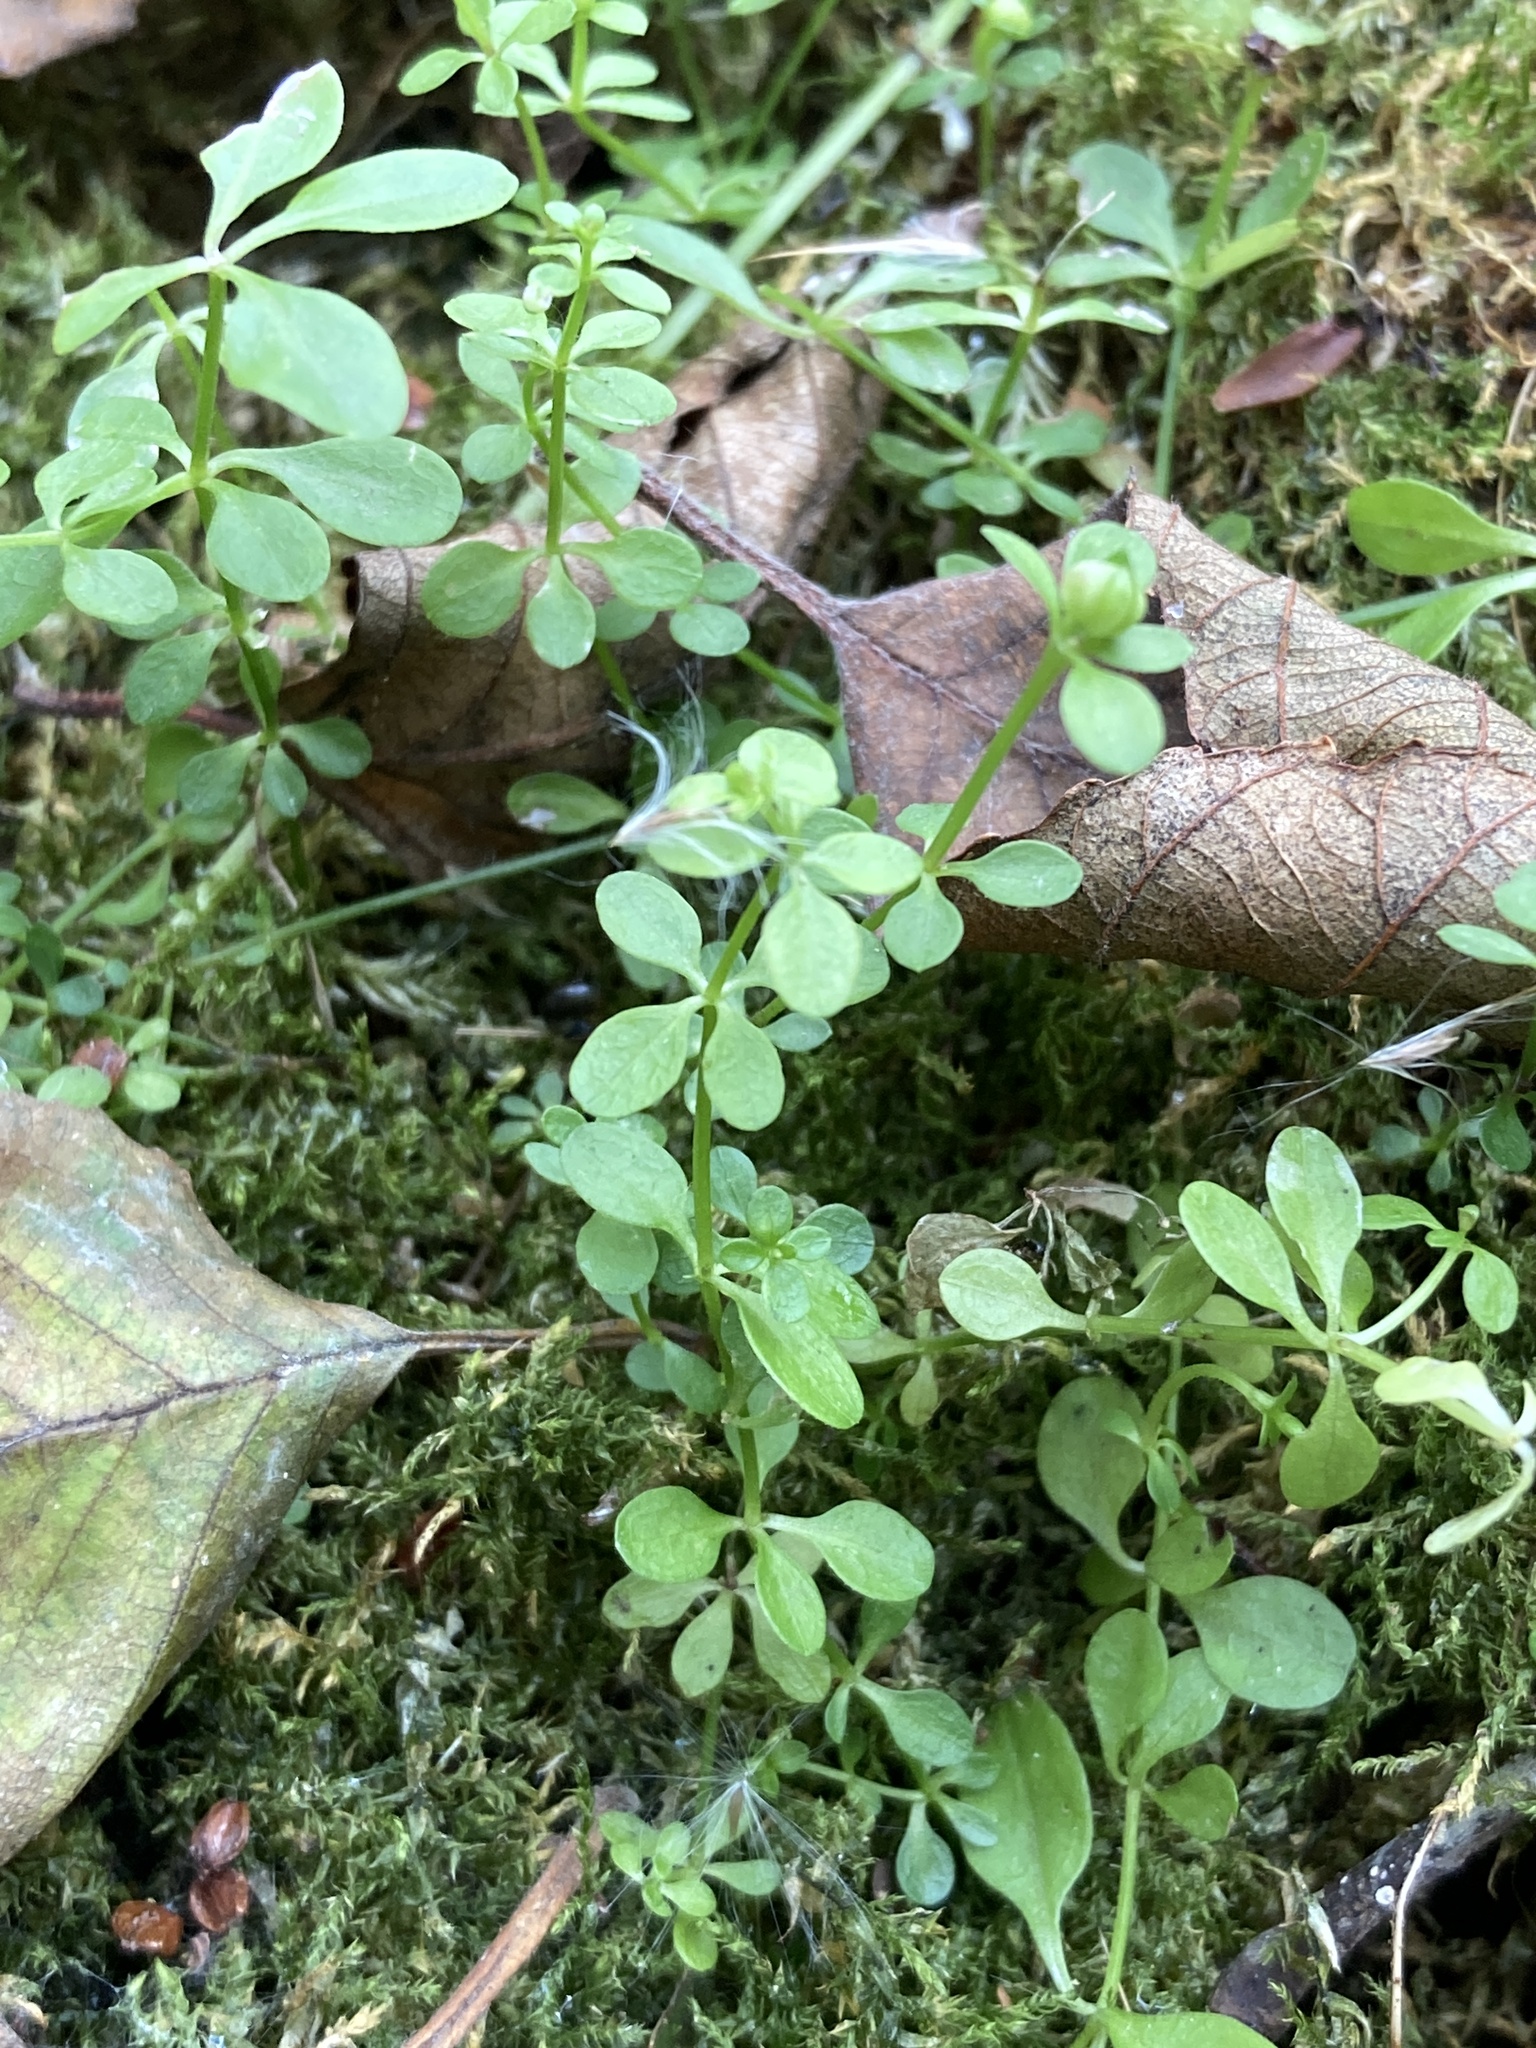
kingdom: Plantae
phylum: Tracheophyta
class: Magnoliopsida
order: Gentianales
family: Rubiaceae
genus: Galium
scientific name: Galium palustre
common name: Common marsh-bedstraw
